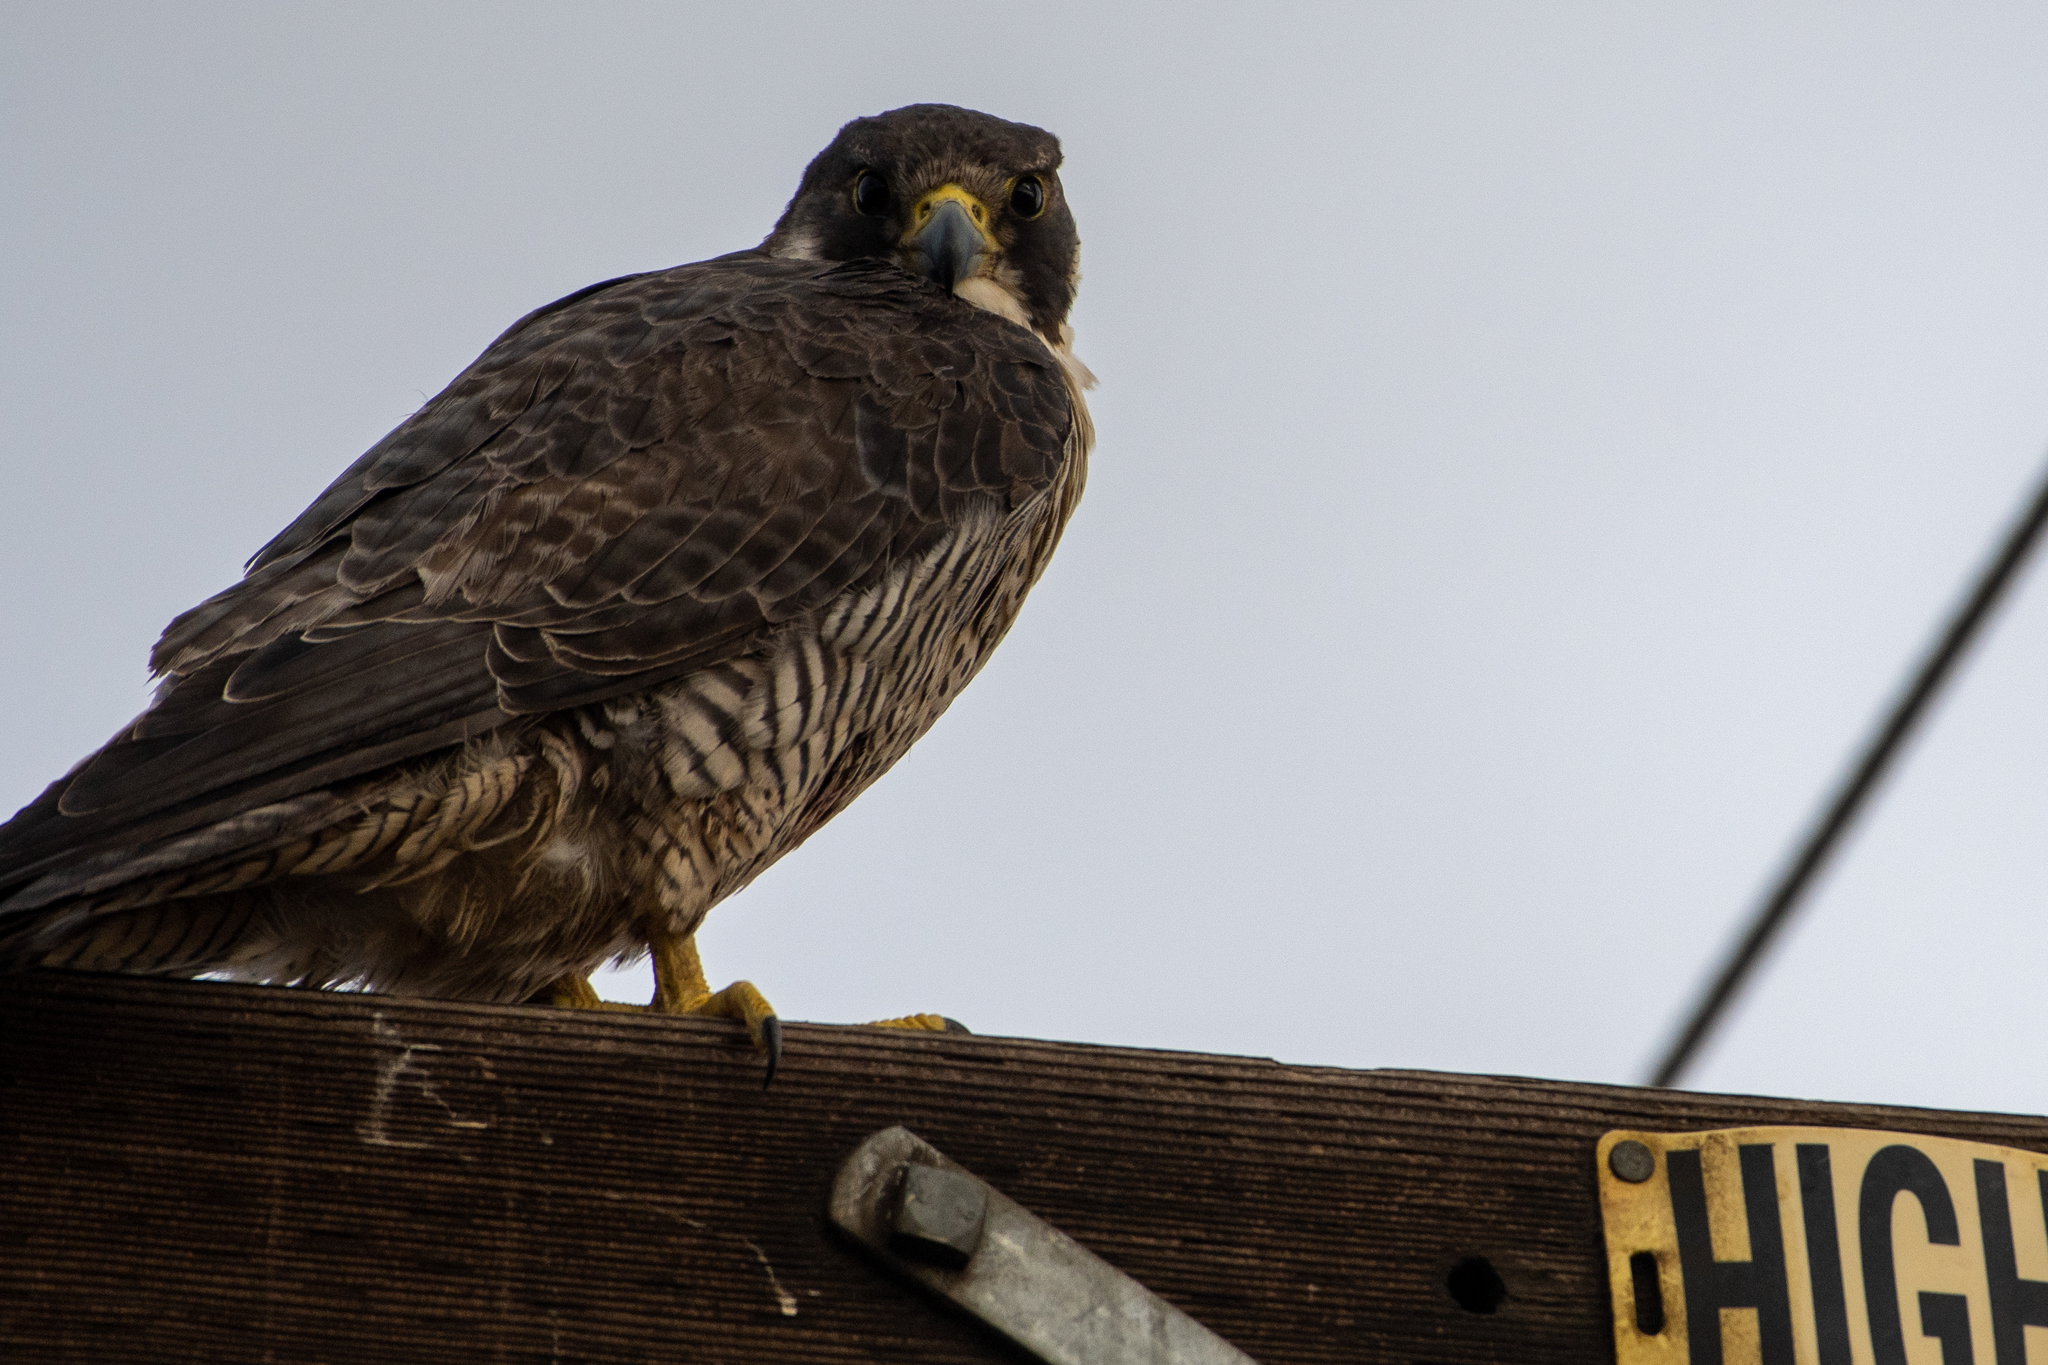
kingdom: Animalia
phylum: Chordata
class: Aves
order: Falconiformes
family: Falconidae
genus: Falco
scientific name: Falco peregrinus
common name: Peregrine falcon
